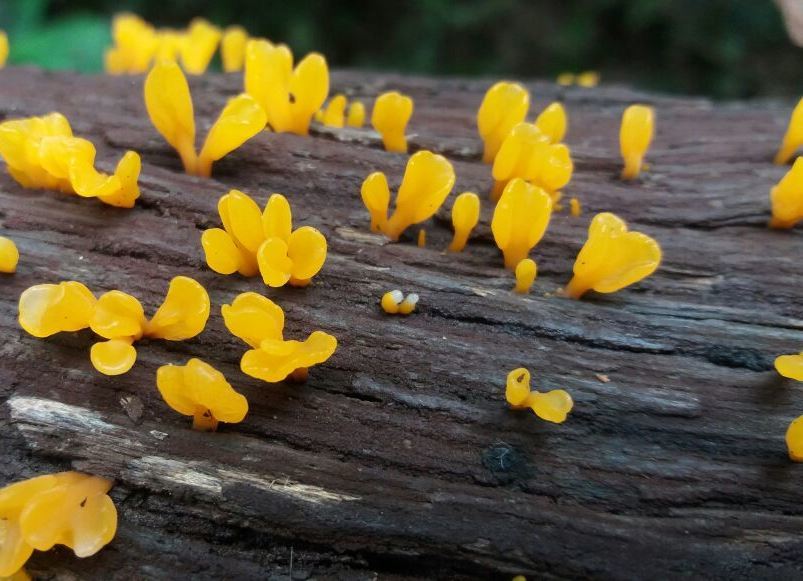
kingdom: Fungi
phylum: Basidiomycota
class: Dacrymycetes
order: Dacrymycetales
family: Dacrymycetaceae
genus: Dacrymyces
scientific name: Dacrymyces spathularius
